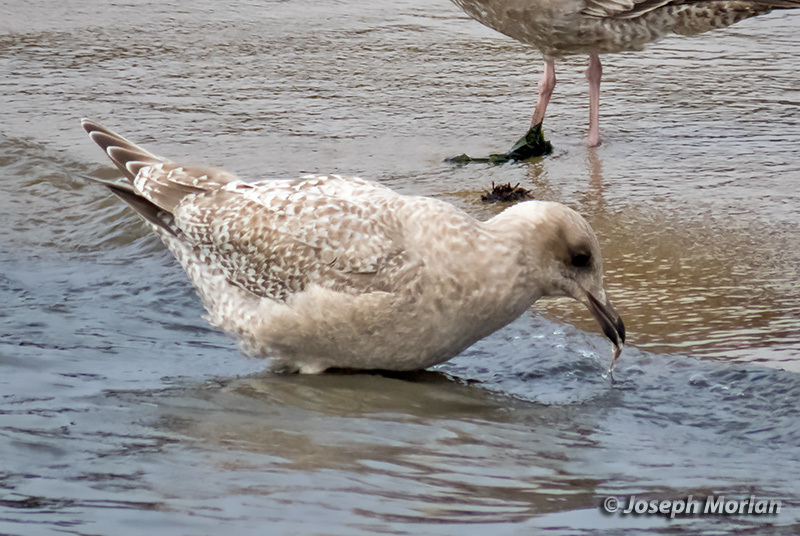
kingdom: Animalia
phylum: Chordata
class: Aves
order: Charadriiformes
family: Laridae
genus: Larus
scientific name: Larus glaucoides
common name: Iceland gull
